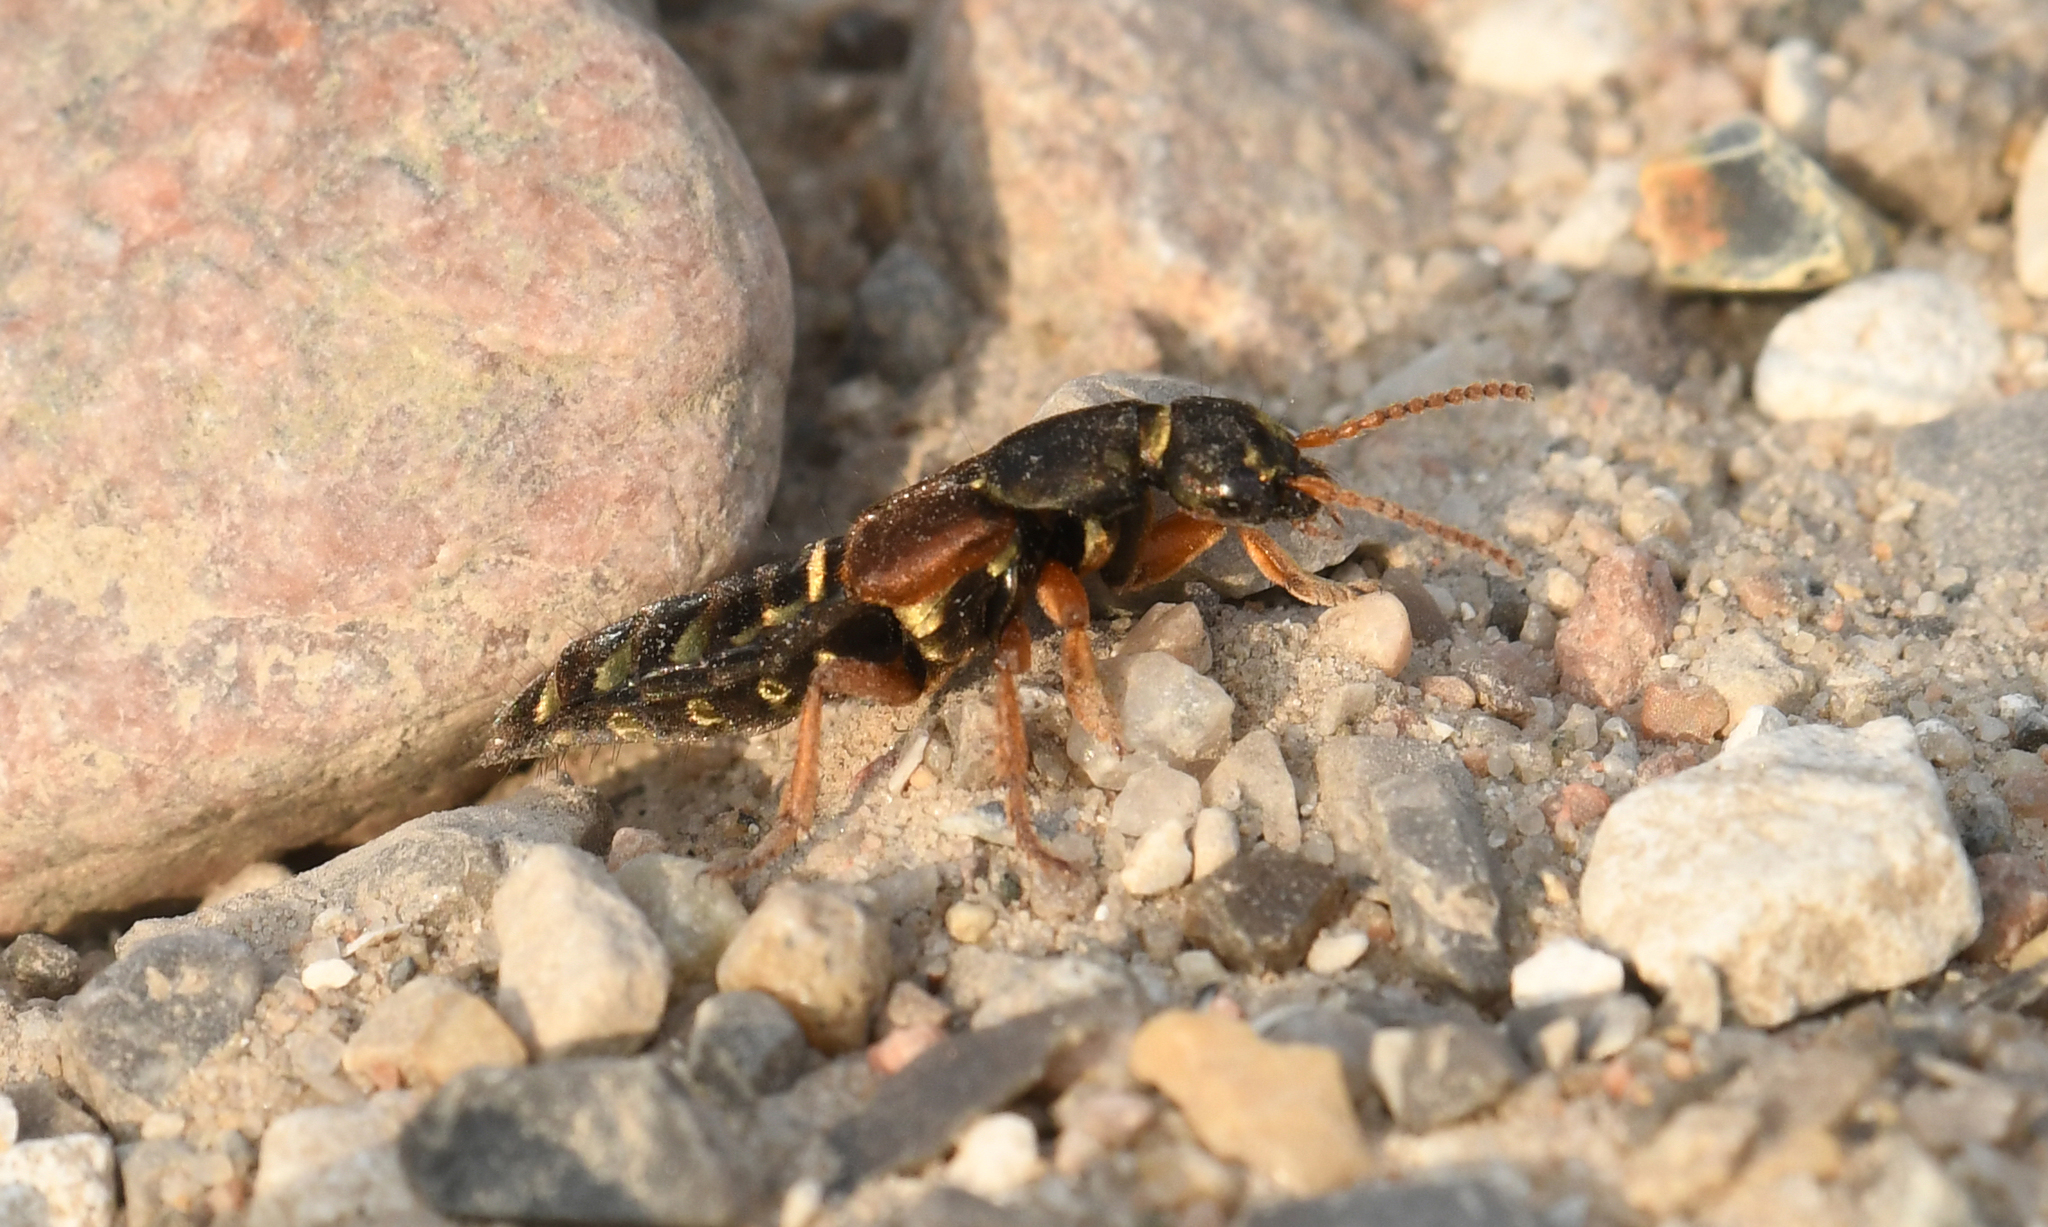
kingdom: Animalia
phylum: Arthropoda
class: Insecta
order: Coleoptera
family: Staphylinidae
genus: Staphylinus
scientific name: Staphylinus caesareus
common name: Staph beetle
